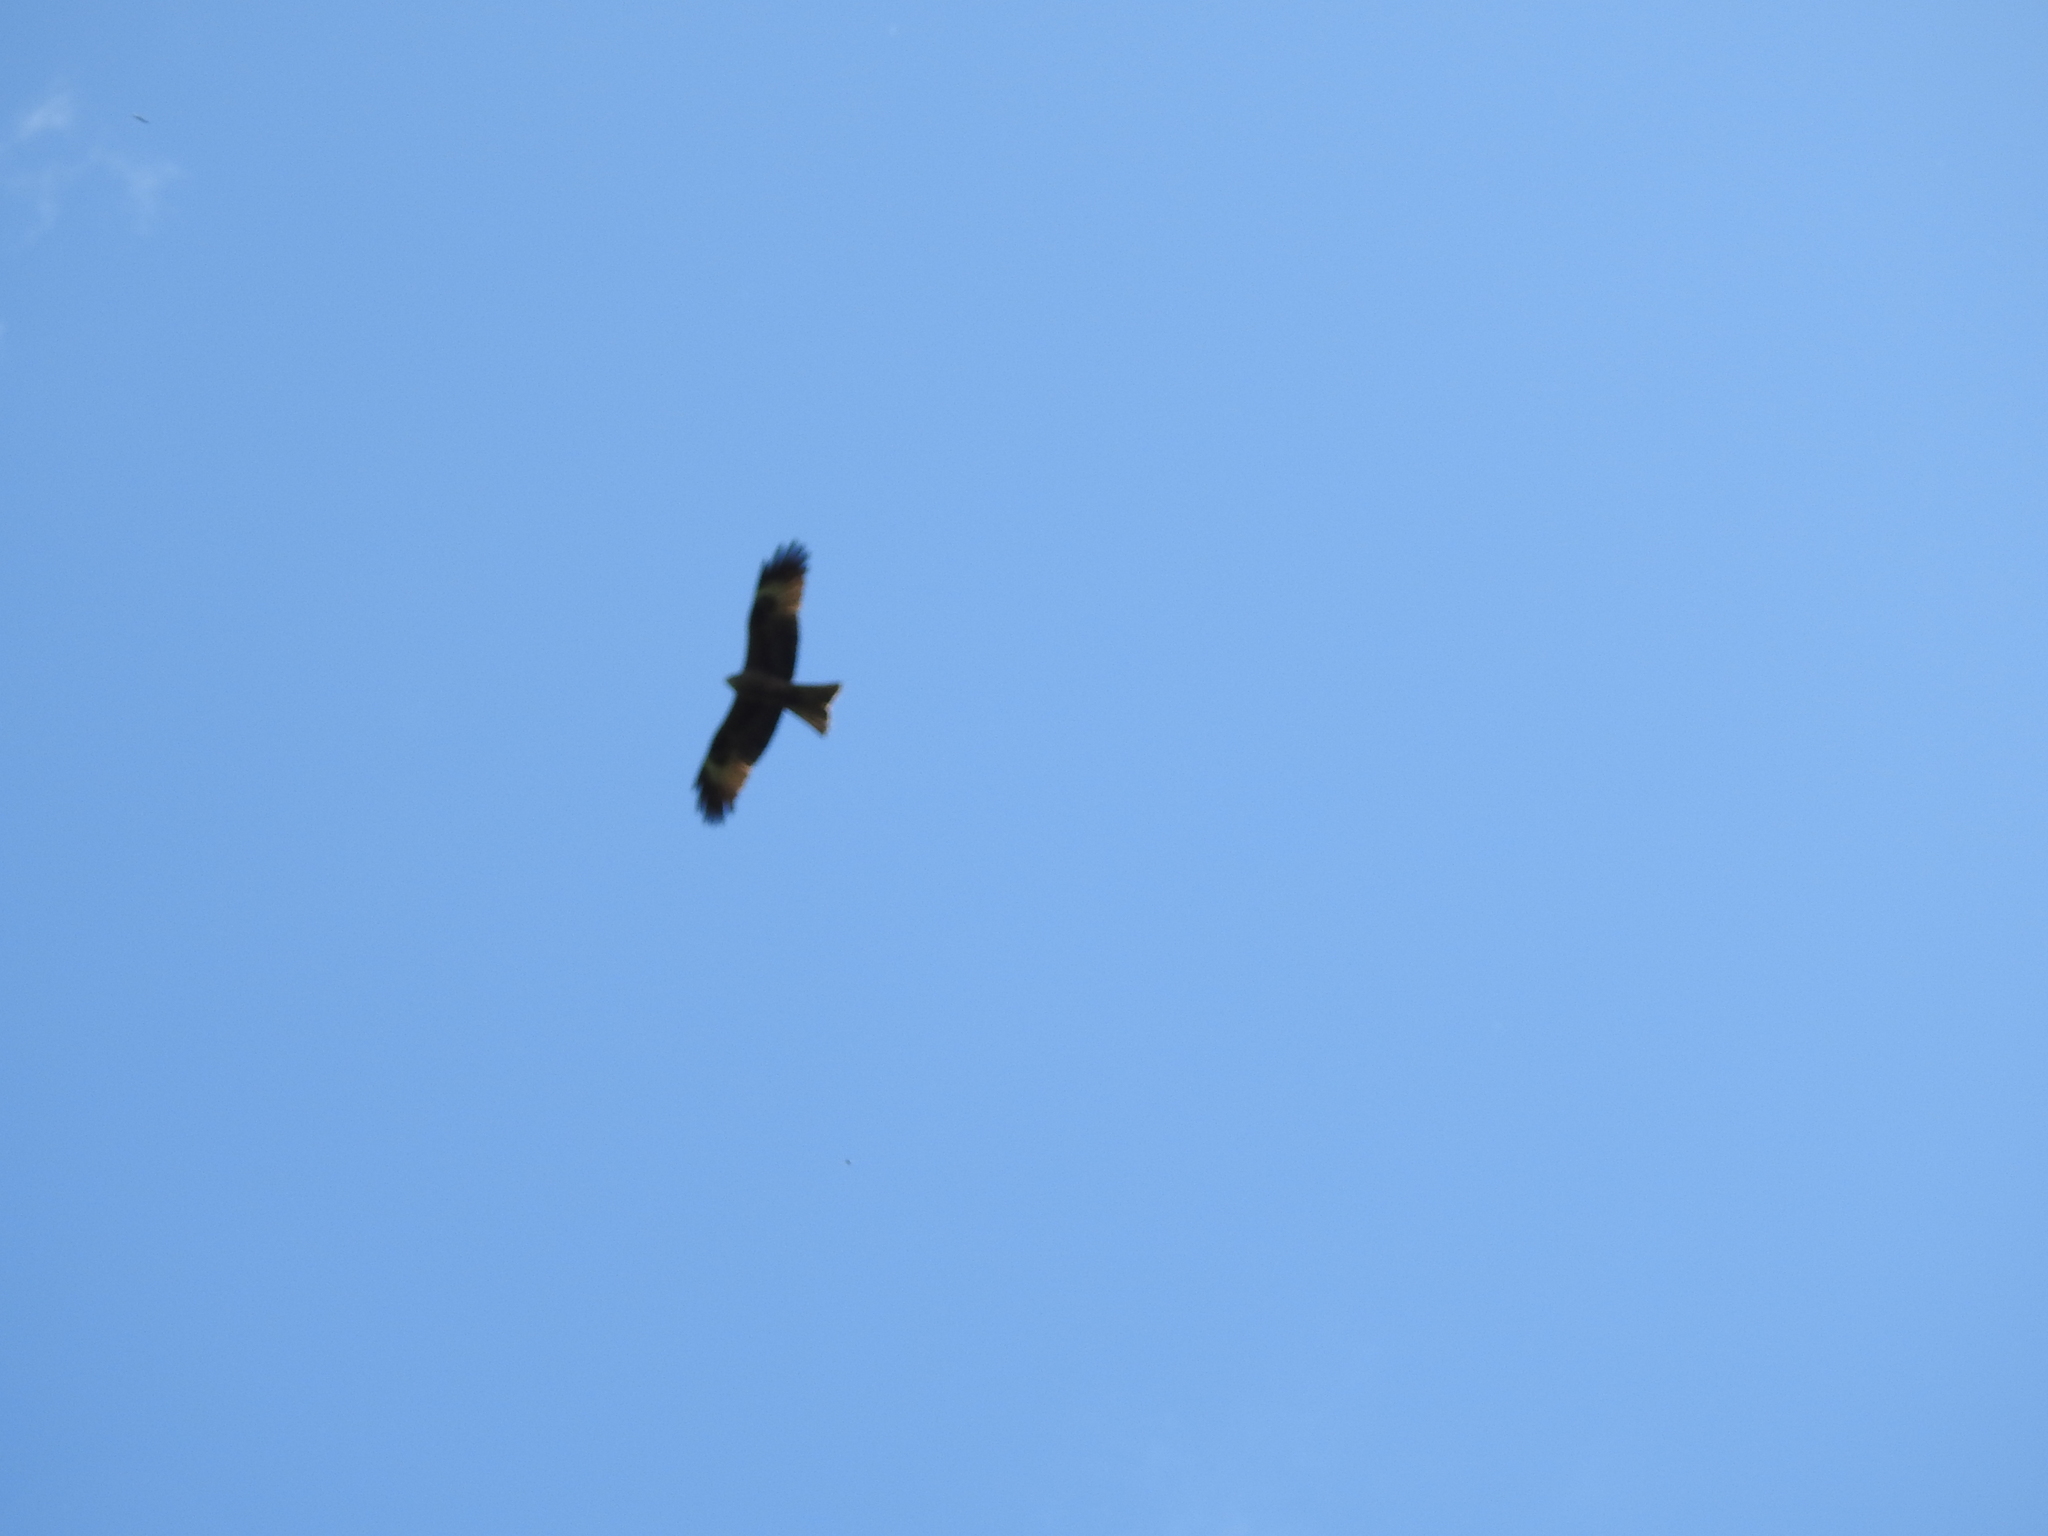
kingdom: Animalia
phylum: Chordata
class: Aves
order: Accipitriformes
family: Accipitridae
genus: Milvus
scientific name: Milvus migrans
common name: Black kite
